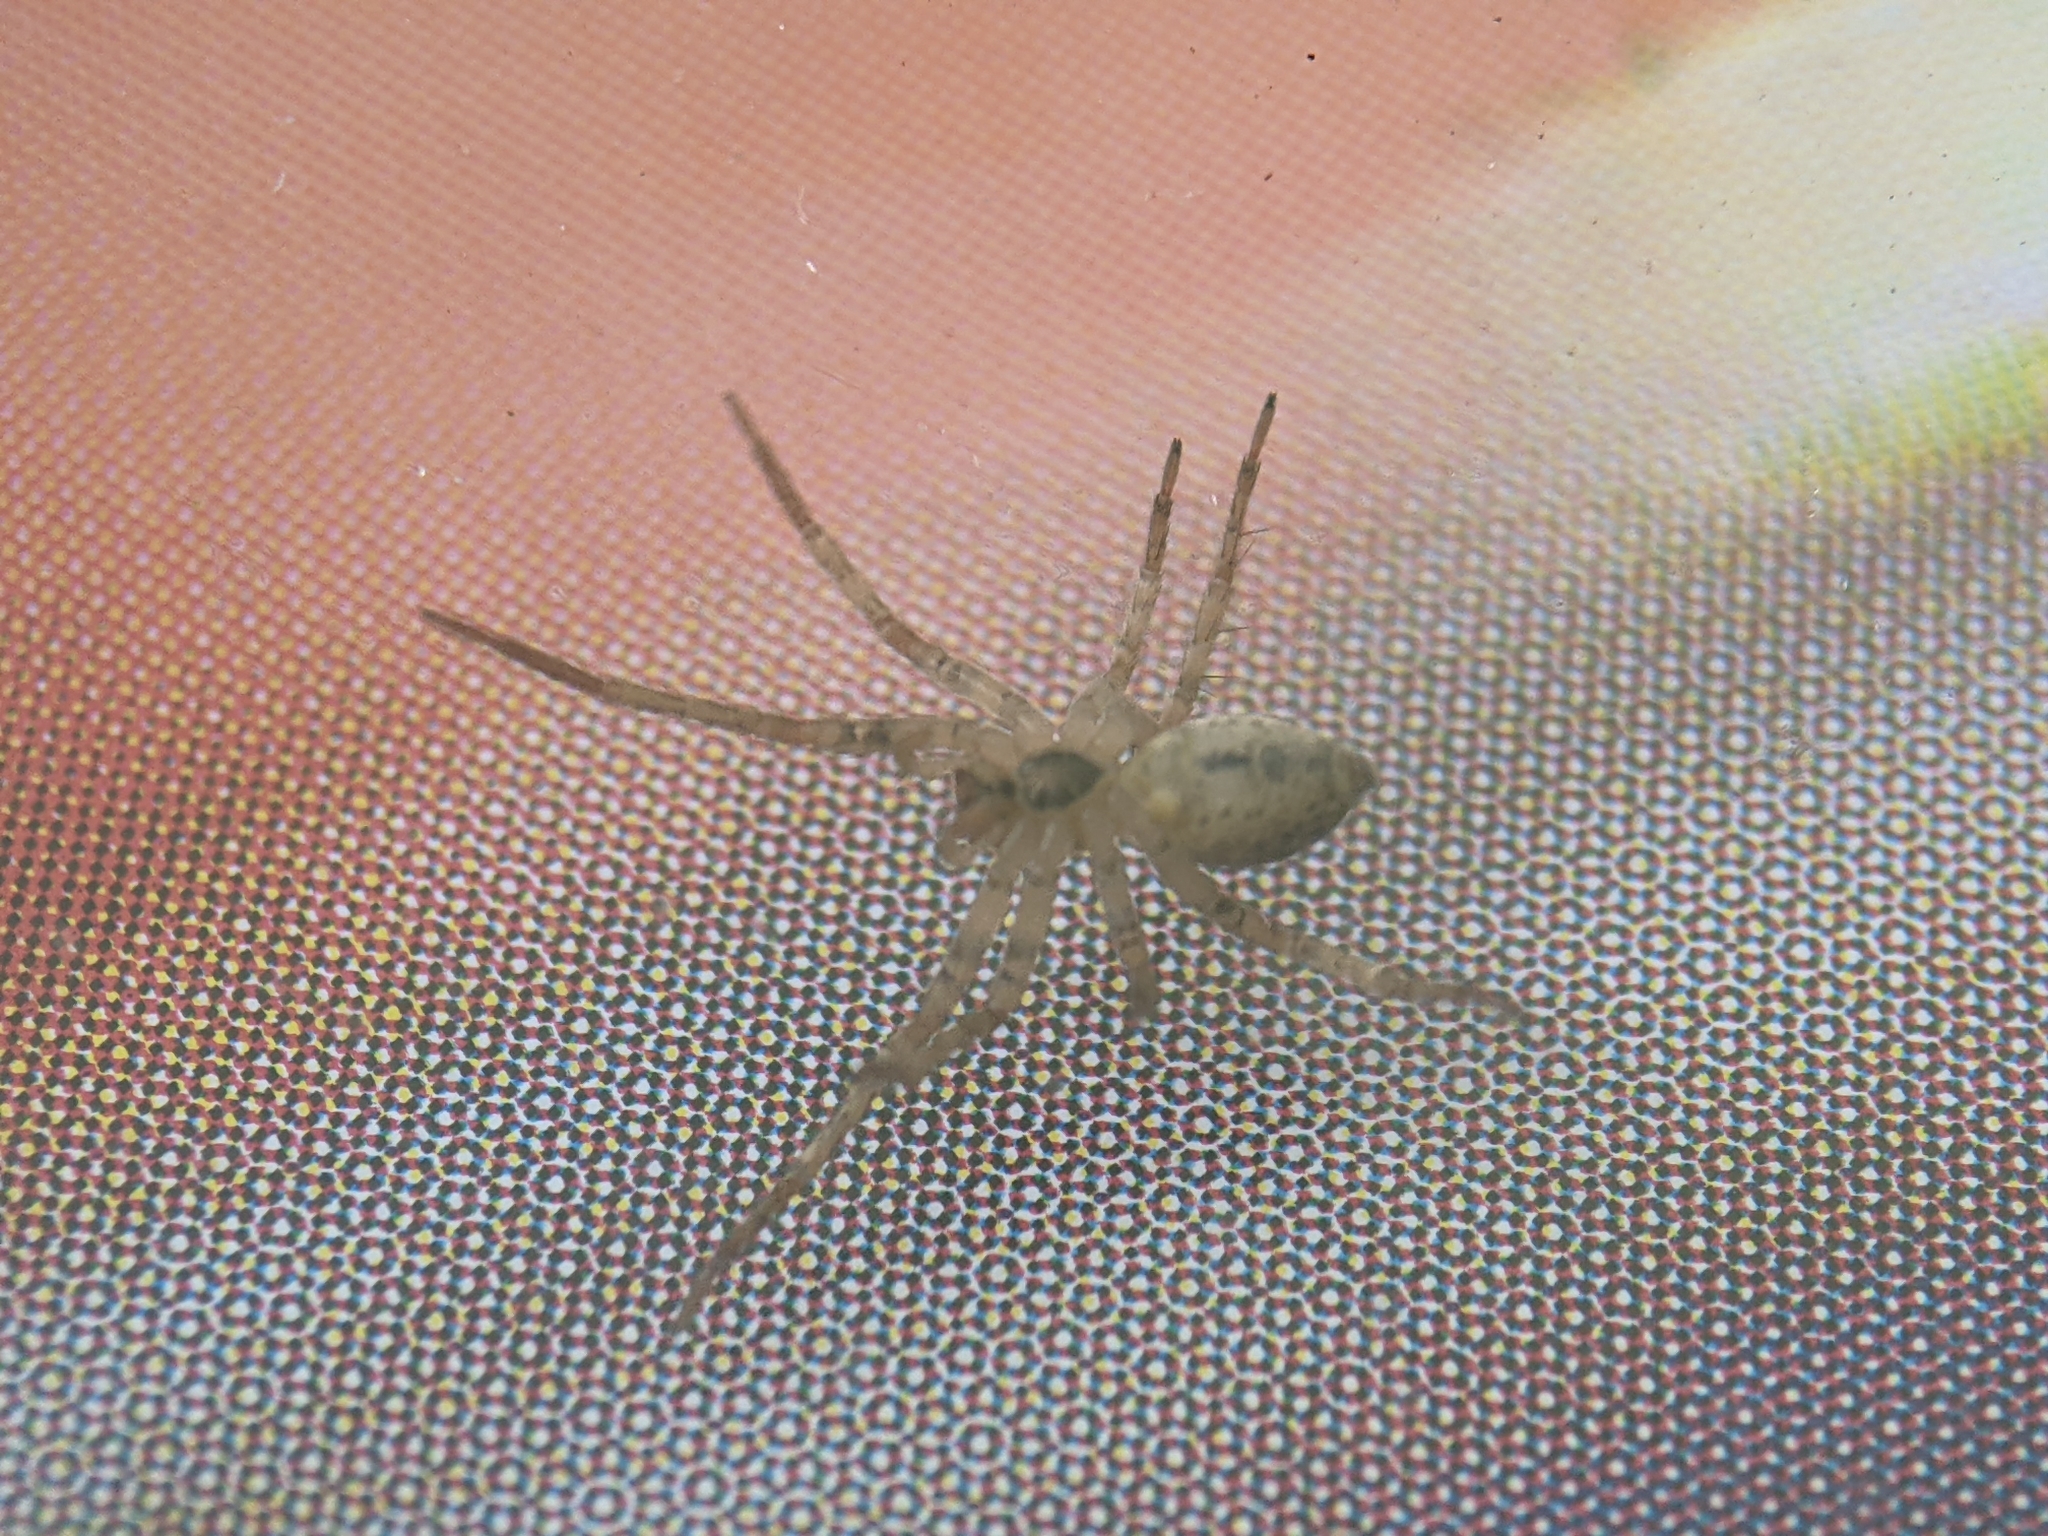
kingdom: Animalia
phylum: Arthropoda
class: Arachnida
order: Araneae
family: Anyphaenidae
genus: Anyphaena
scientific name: Anyphaena accentuata
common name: Buzzing spider
